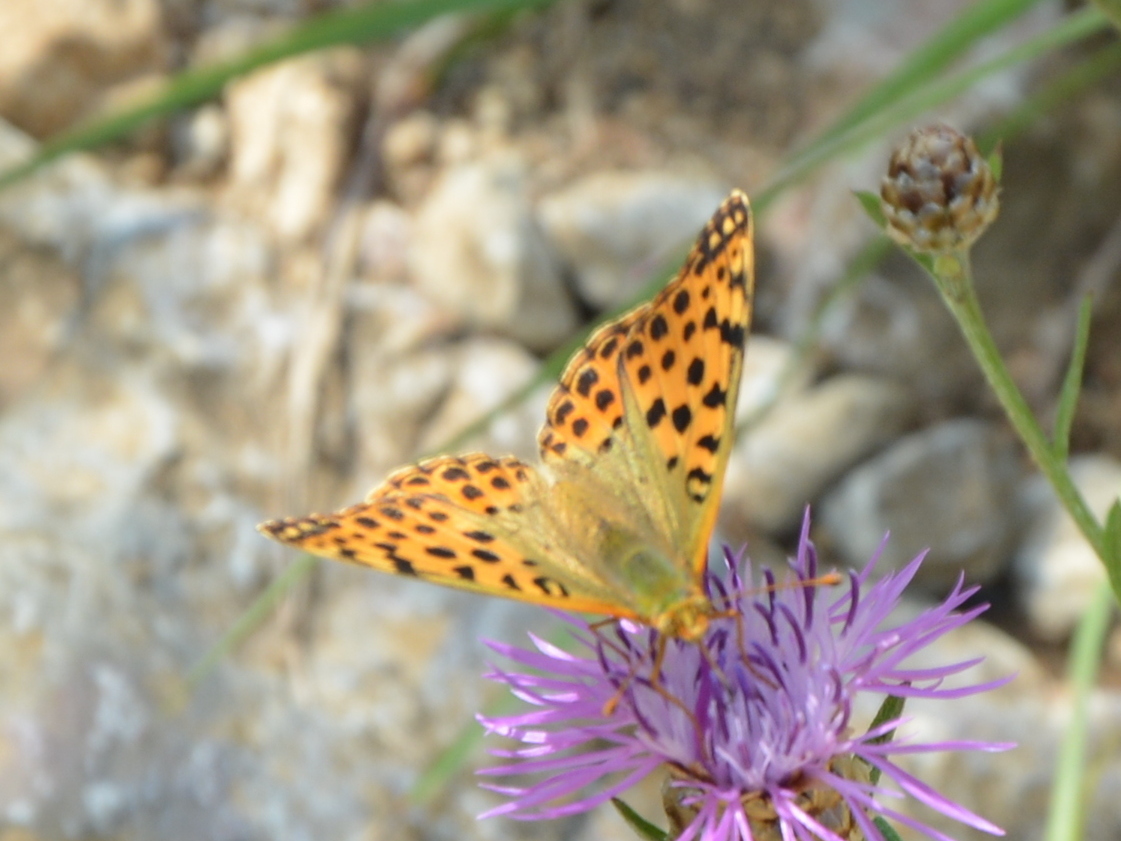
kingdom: Animalia
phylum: Arthropoda
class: Insecta
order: Lepidoptera
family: Nymphalidae
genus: Issoria
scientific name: Issoria lathonia
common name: Queen of spain fritillary
